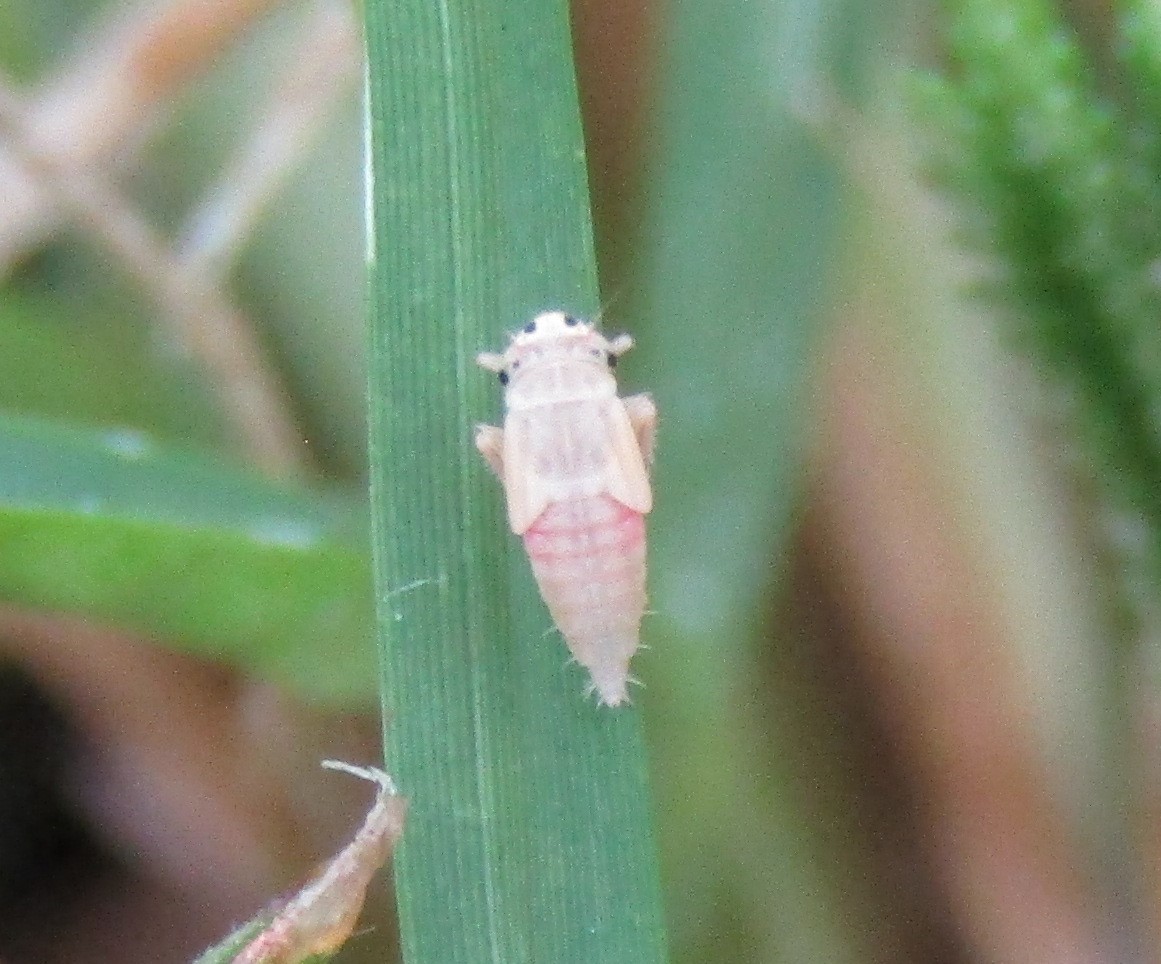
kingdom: Animalia
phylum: Arthropoda
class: Insecta
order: Hemiptera
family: Cicadellidae
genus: Exitianus
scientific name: Exitianus exitiosus
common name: Gray lawn leafhopper
